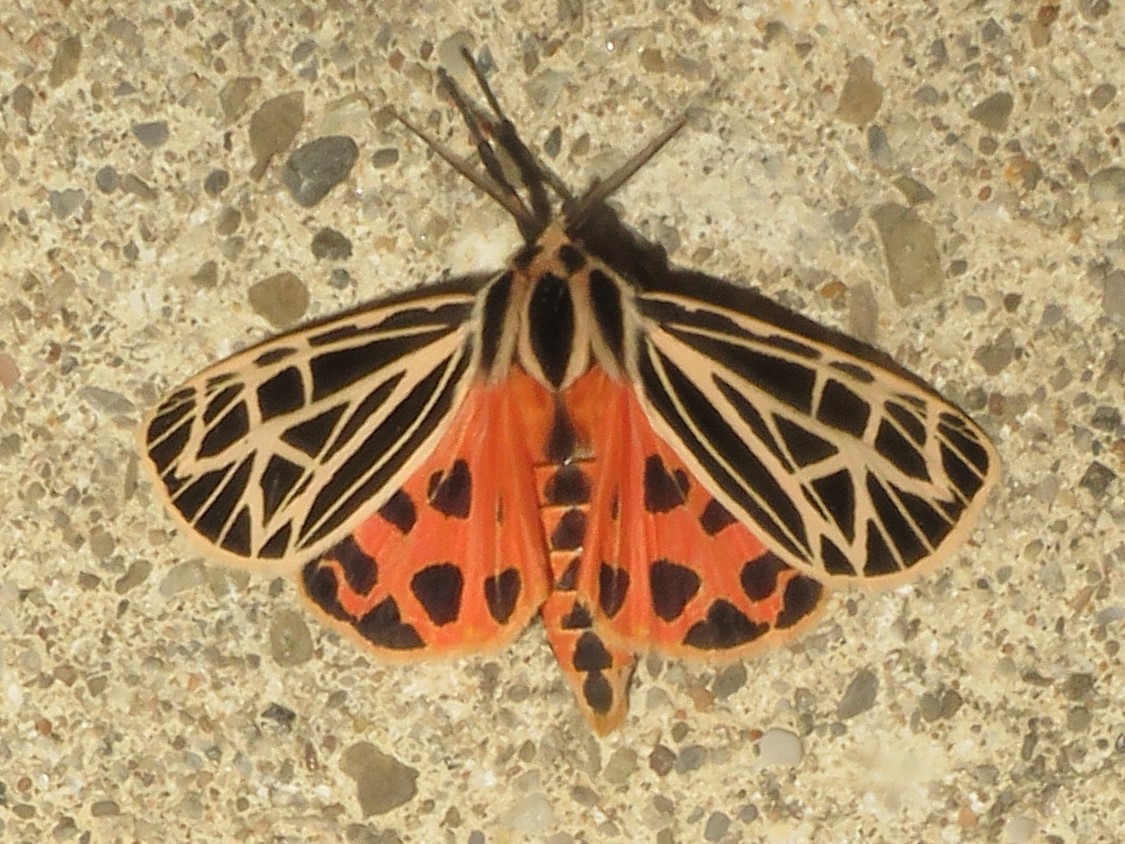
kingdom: Animalia
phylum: Arthropoda
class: Insecta
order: Lepidoptera
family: Erebidae
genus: Grammia
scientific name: Grammia virgo
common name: Virgin tiger moth
